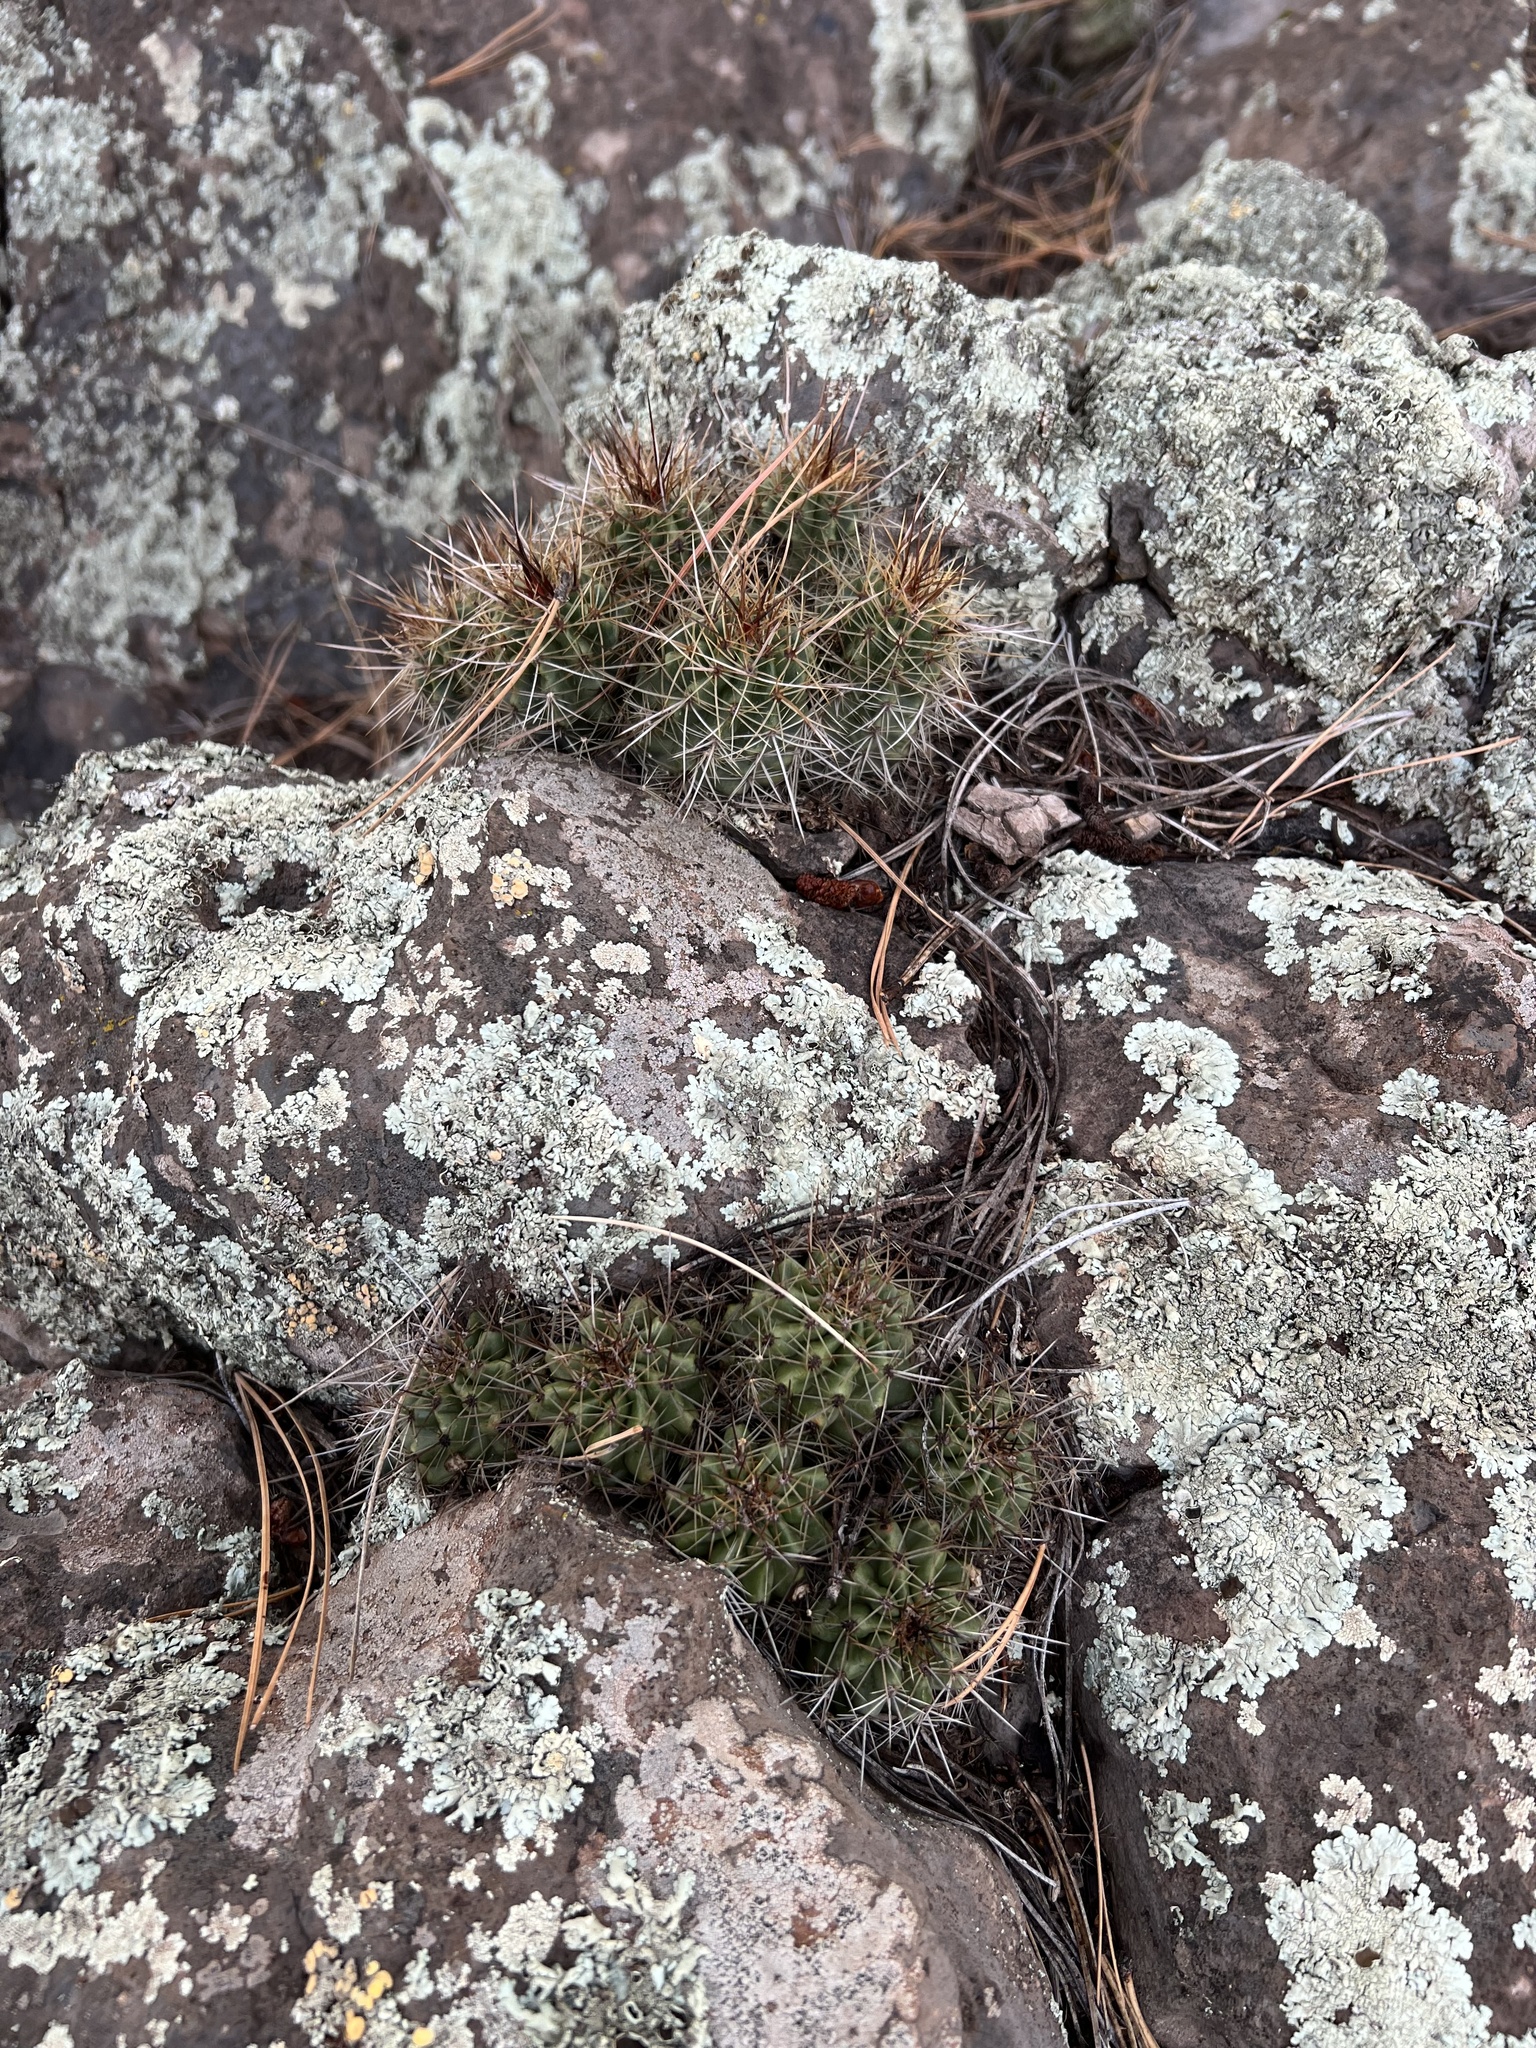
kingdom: Plantae
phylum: Tracheophyta
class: Magnoliopsida
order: Caryophyllales
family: Cactaceae
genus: Echinocereus
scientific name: Echinocereus bakeri
